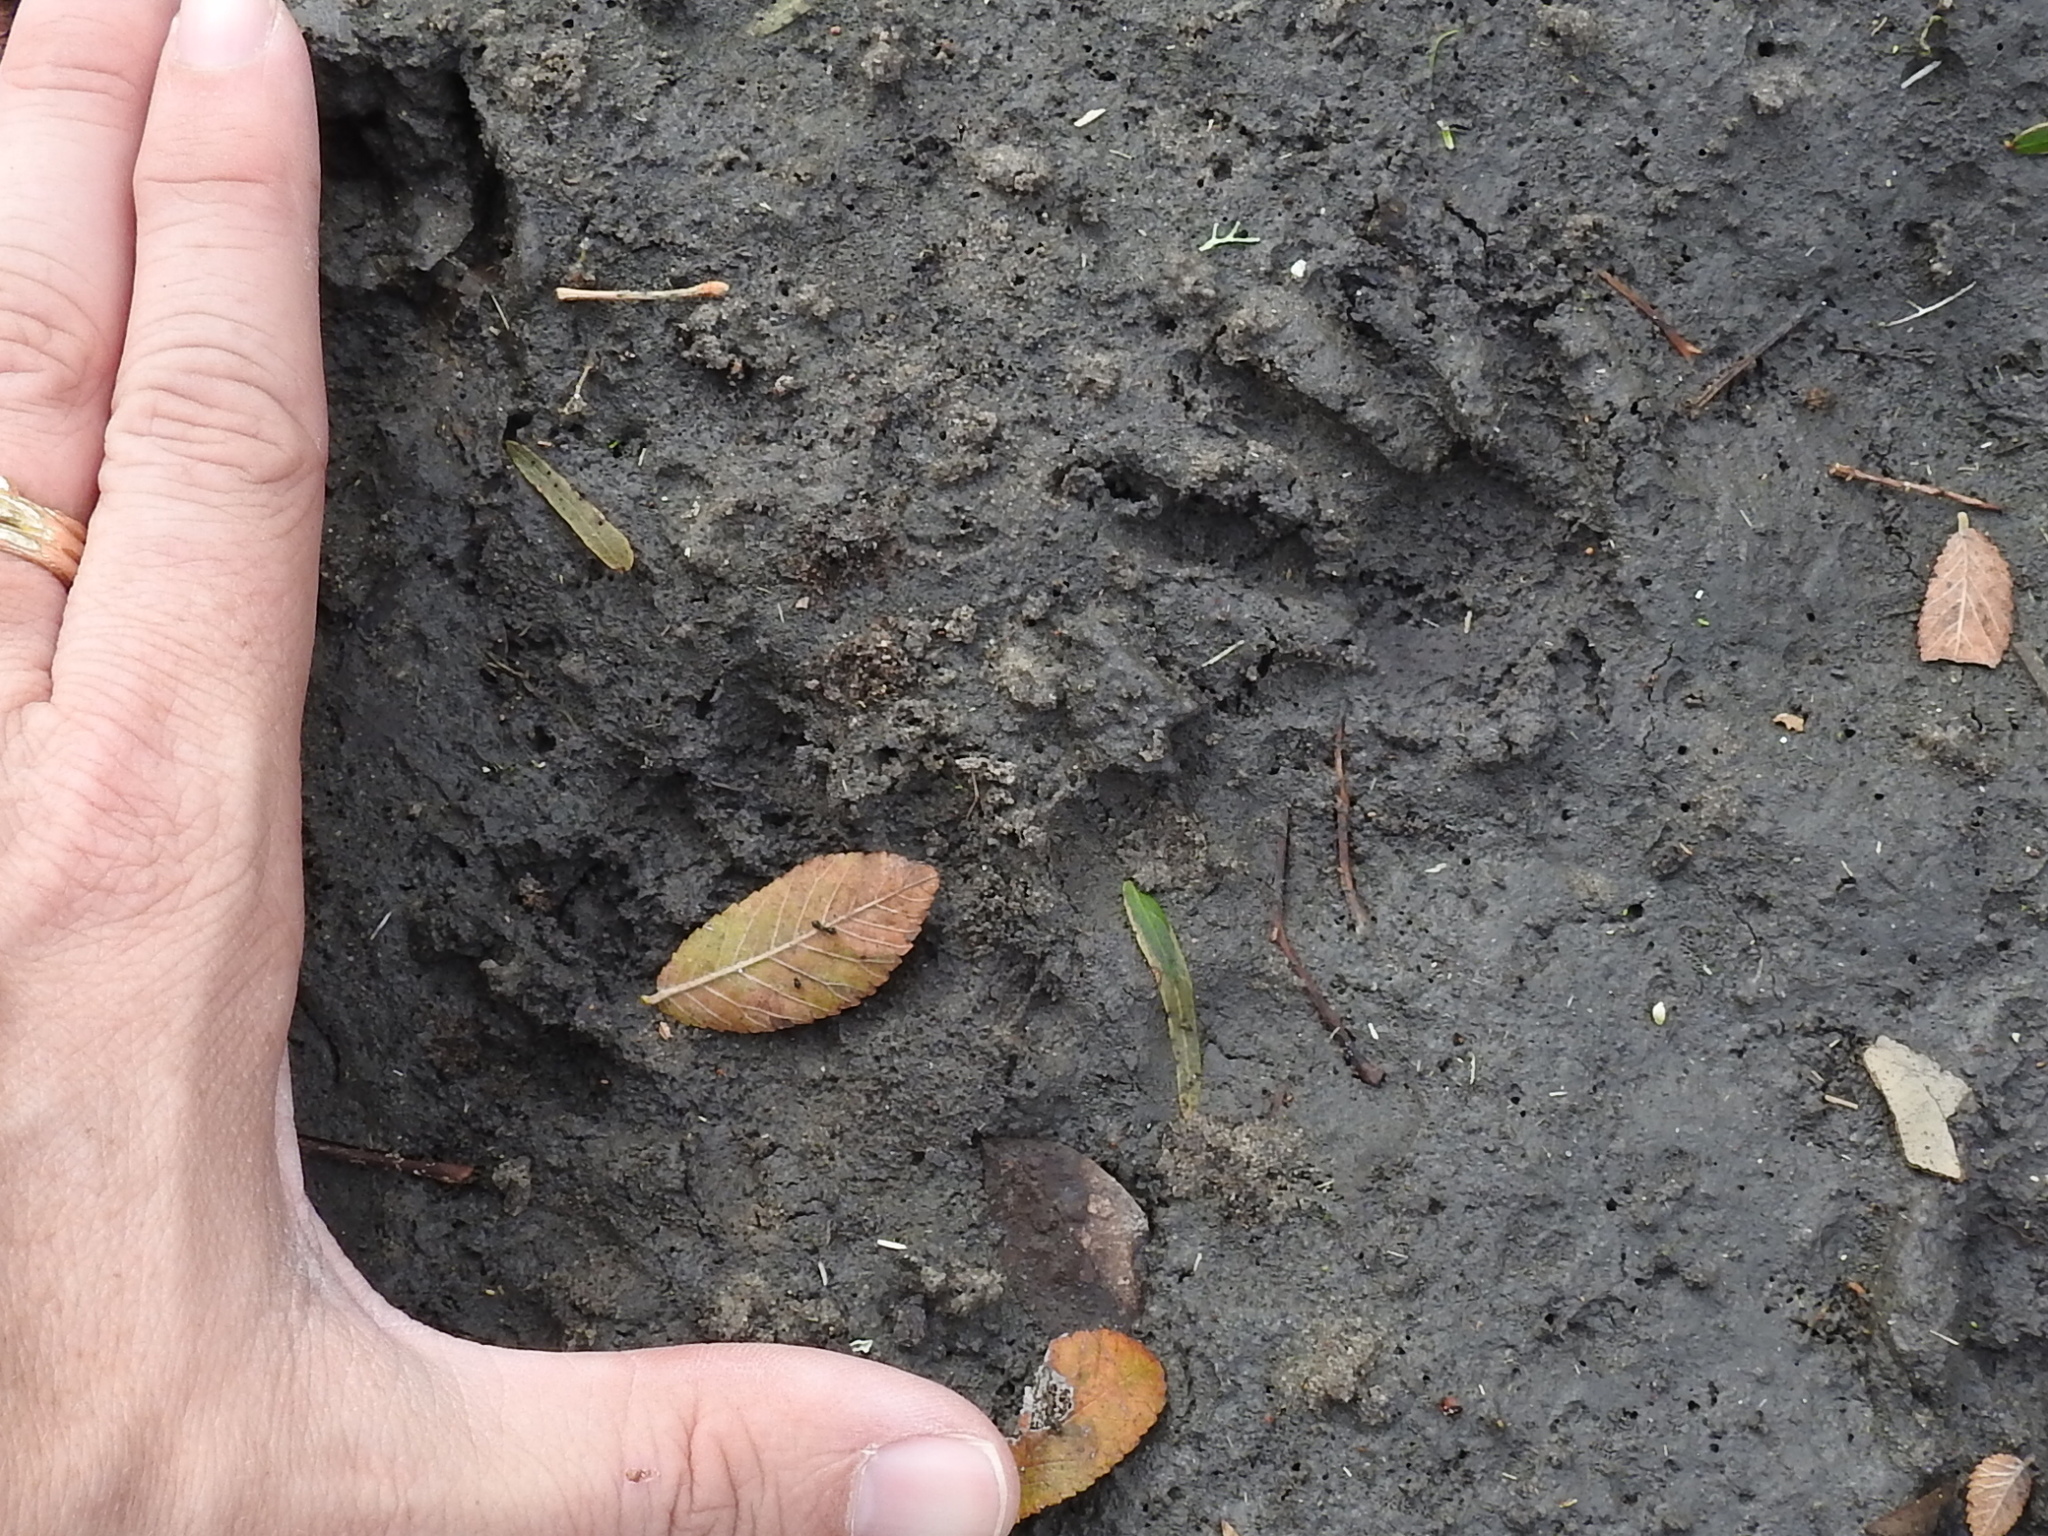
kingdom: Animalia
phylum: Chordata
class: Mammalia
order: Carnivora
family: Procyonidae
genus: Procyon
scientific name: Procyon lotor
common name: Raccoon
